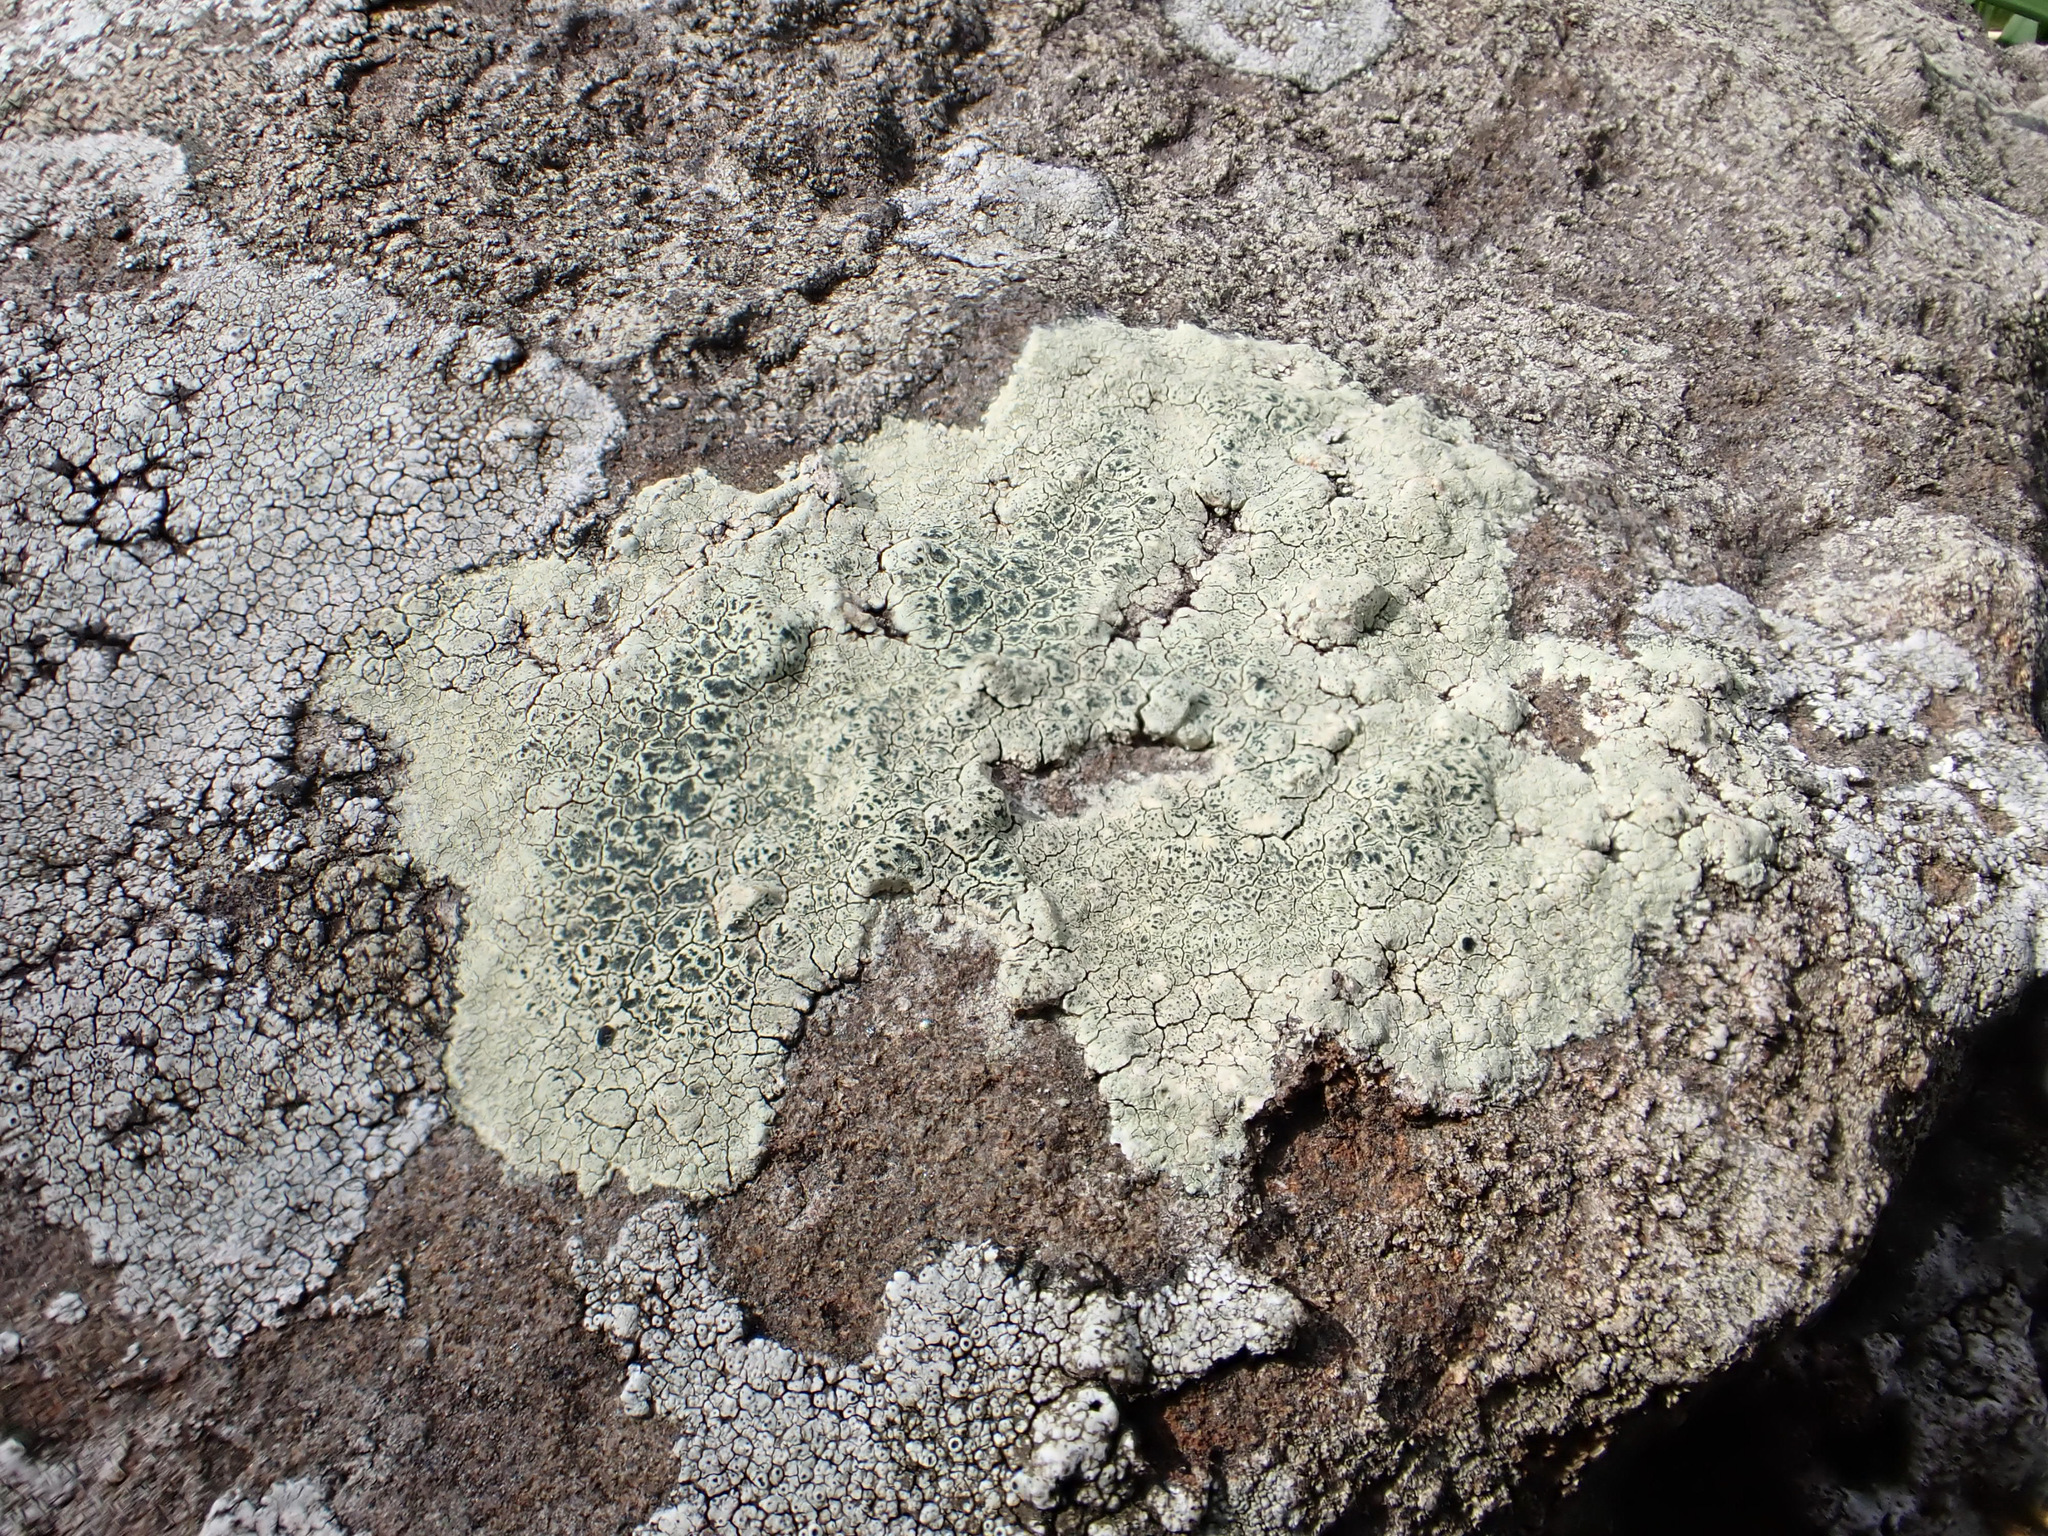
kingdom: Fungi
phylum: Ascomycota
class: Lecanoromycetes
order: Lecanorales
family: Lecanoraceae
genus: Glaucomaria
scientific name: Glaucomaria sulphurea
